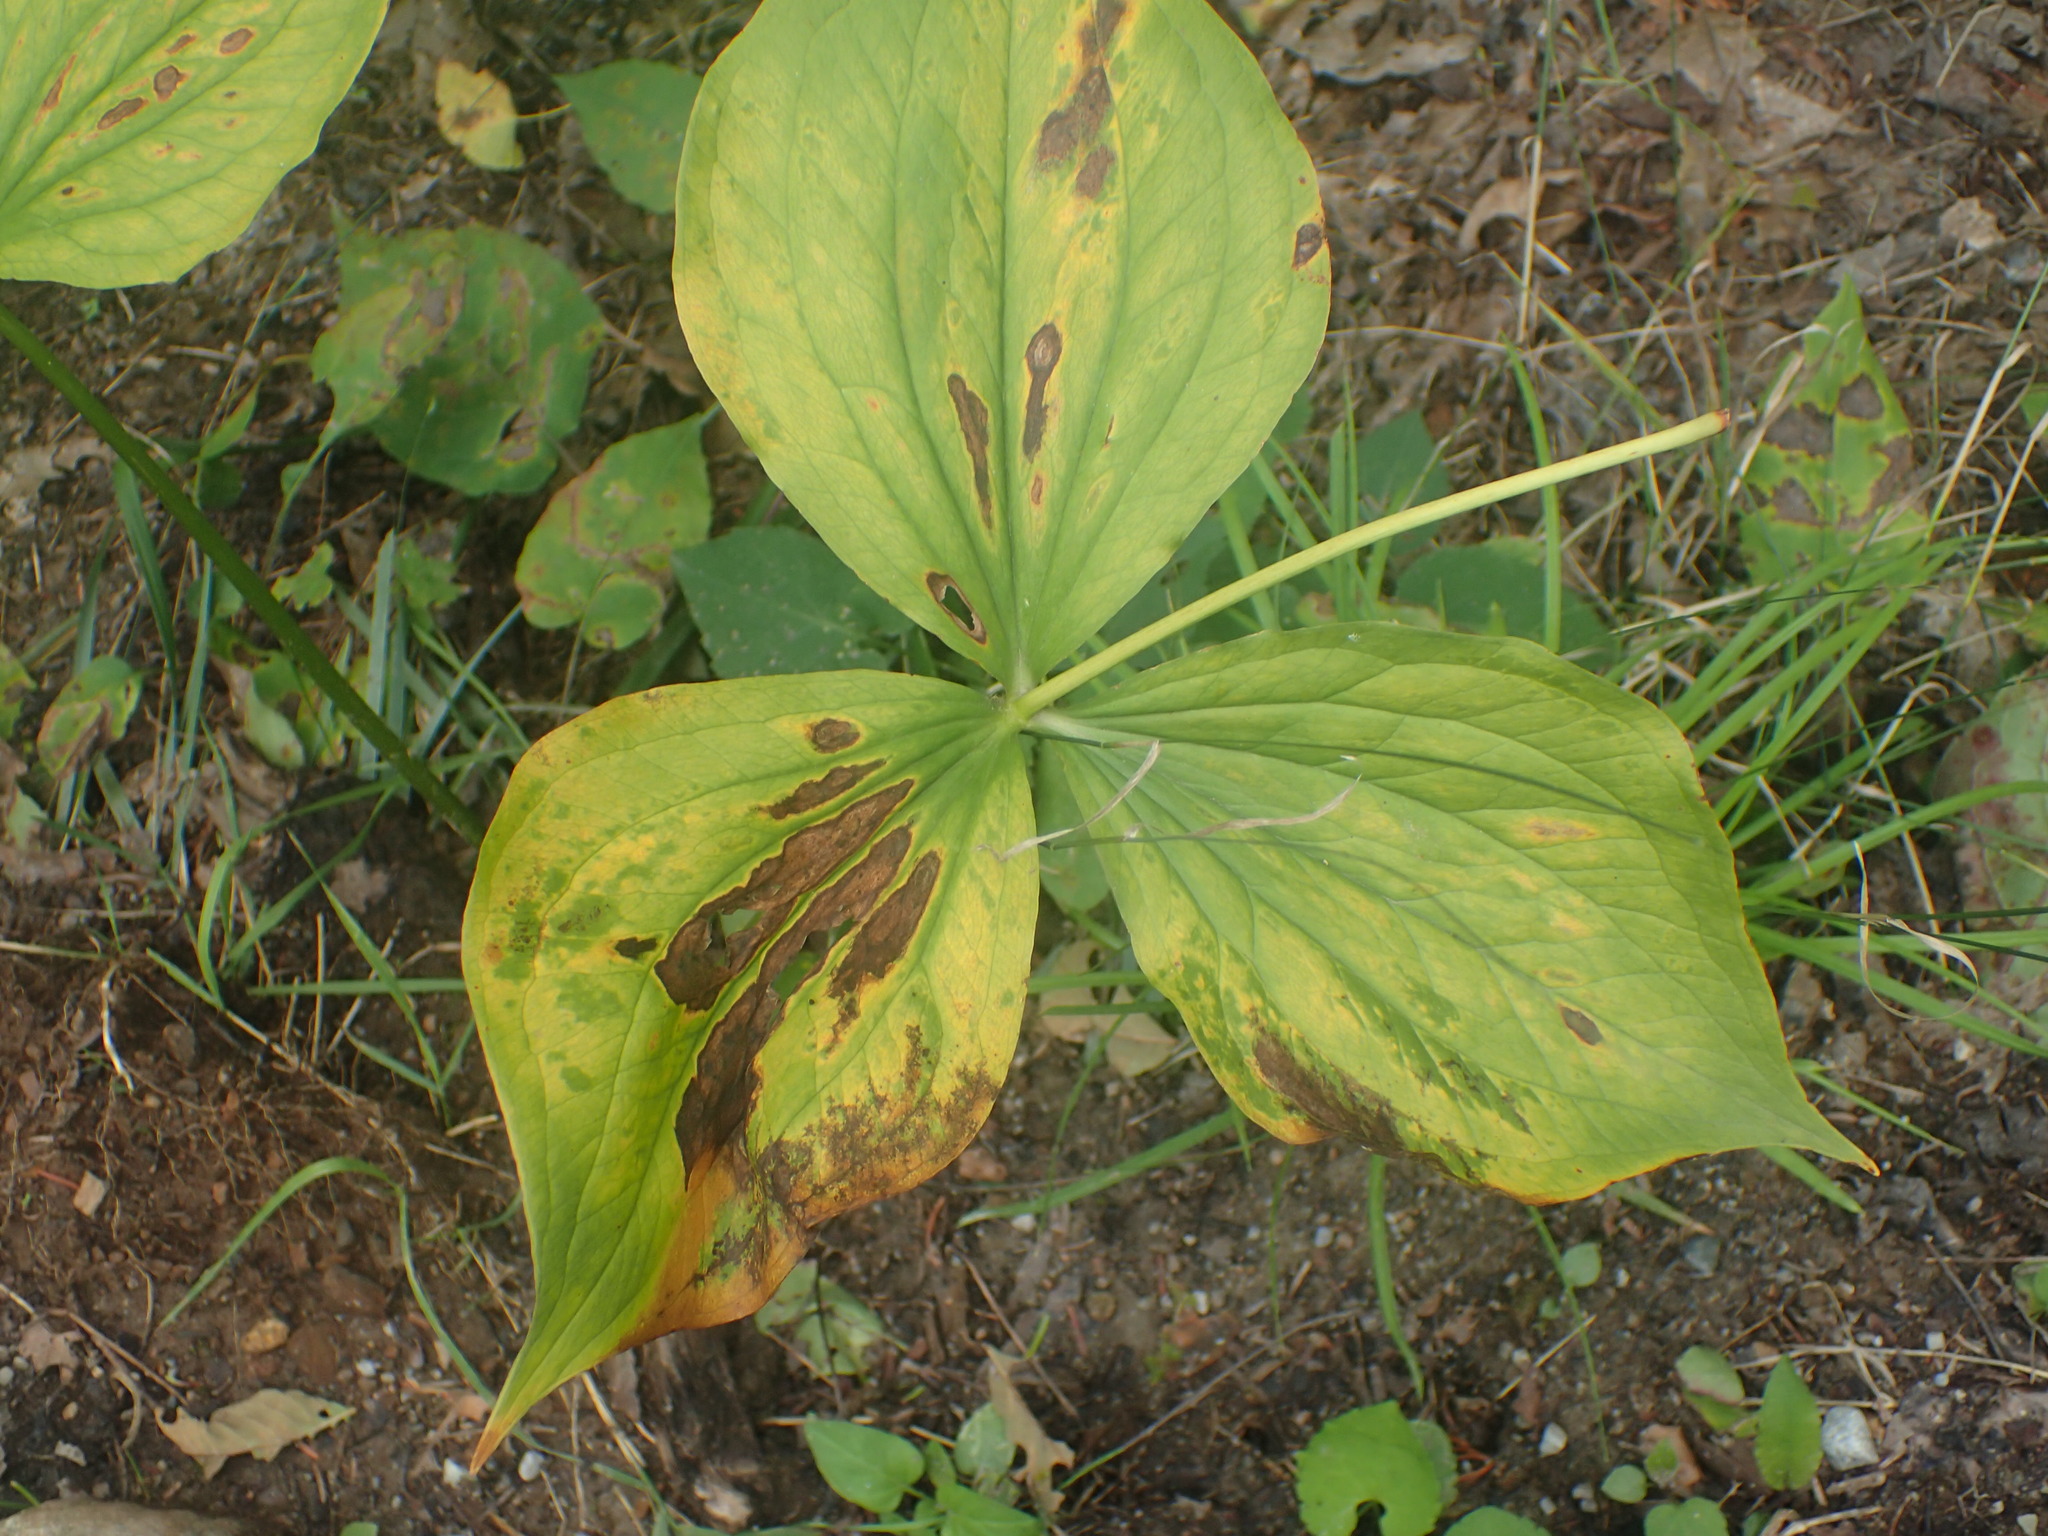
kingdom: Plantae
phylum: Tracheophyta
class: Liliopsida
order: Liliales
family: Melanthiaceae
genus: Trillium
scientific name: Trillium grandiflorum
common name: Great white trillium
